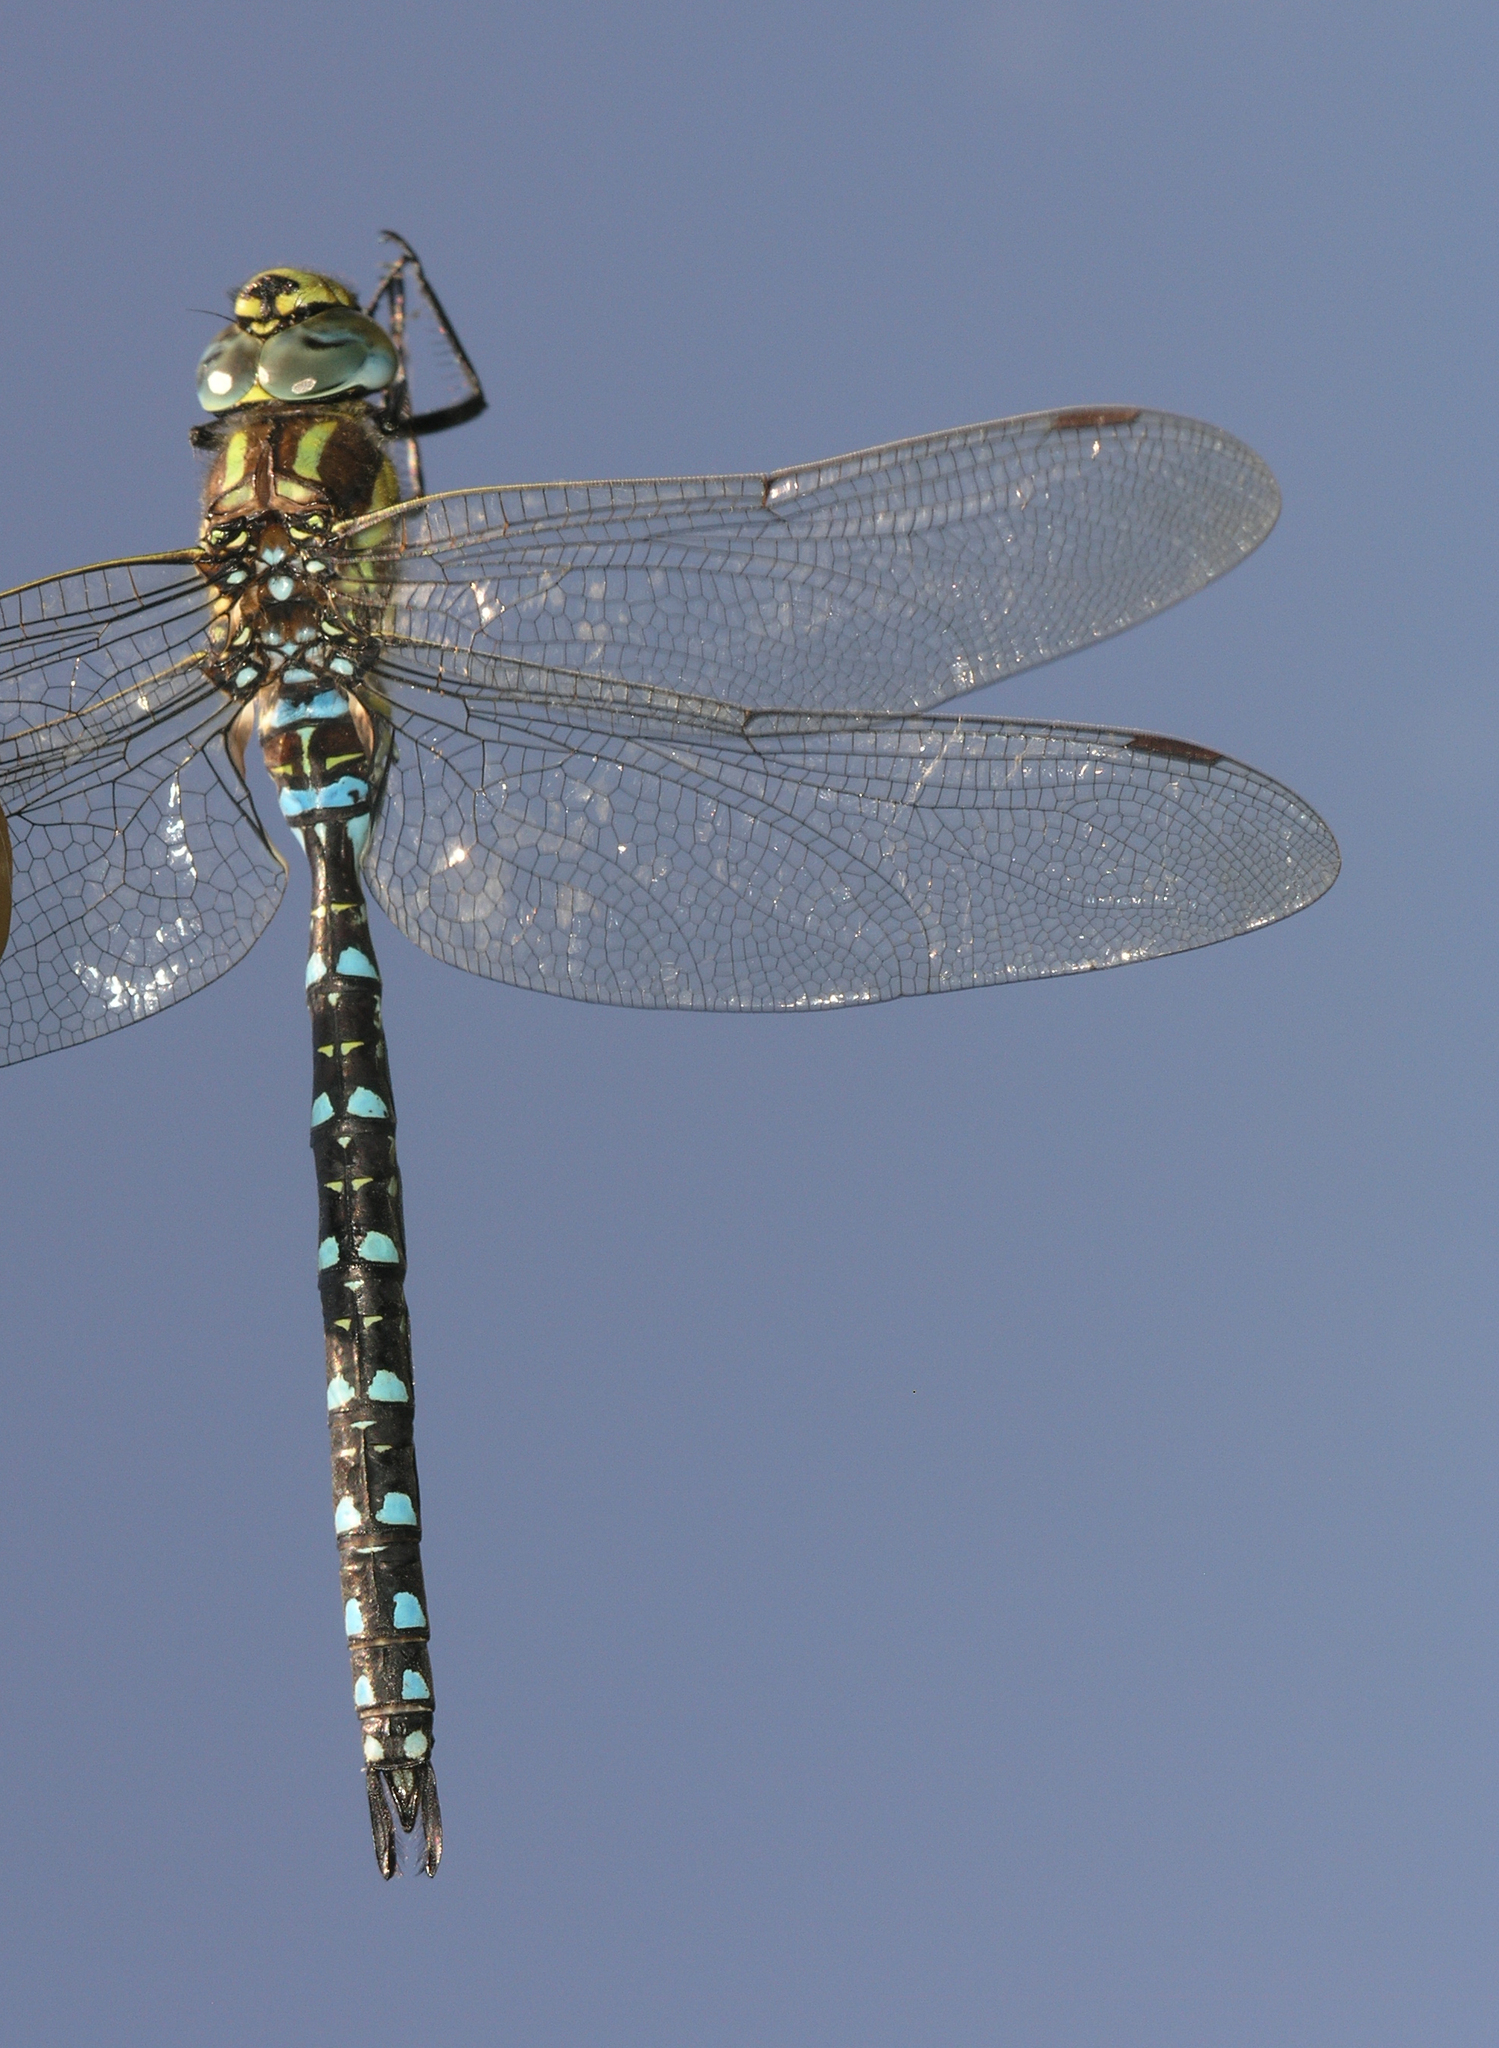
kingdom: Animalia
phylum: Arthropoda
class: Insecta
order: Odonata
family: Aeshnidae
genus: Aeshna
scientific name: Aeshna juncea
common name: Moorland hawker
